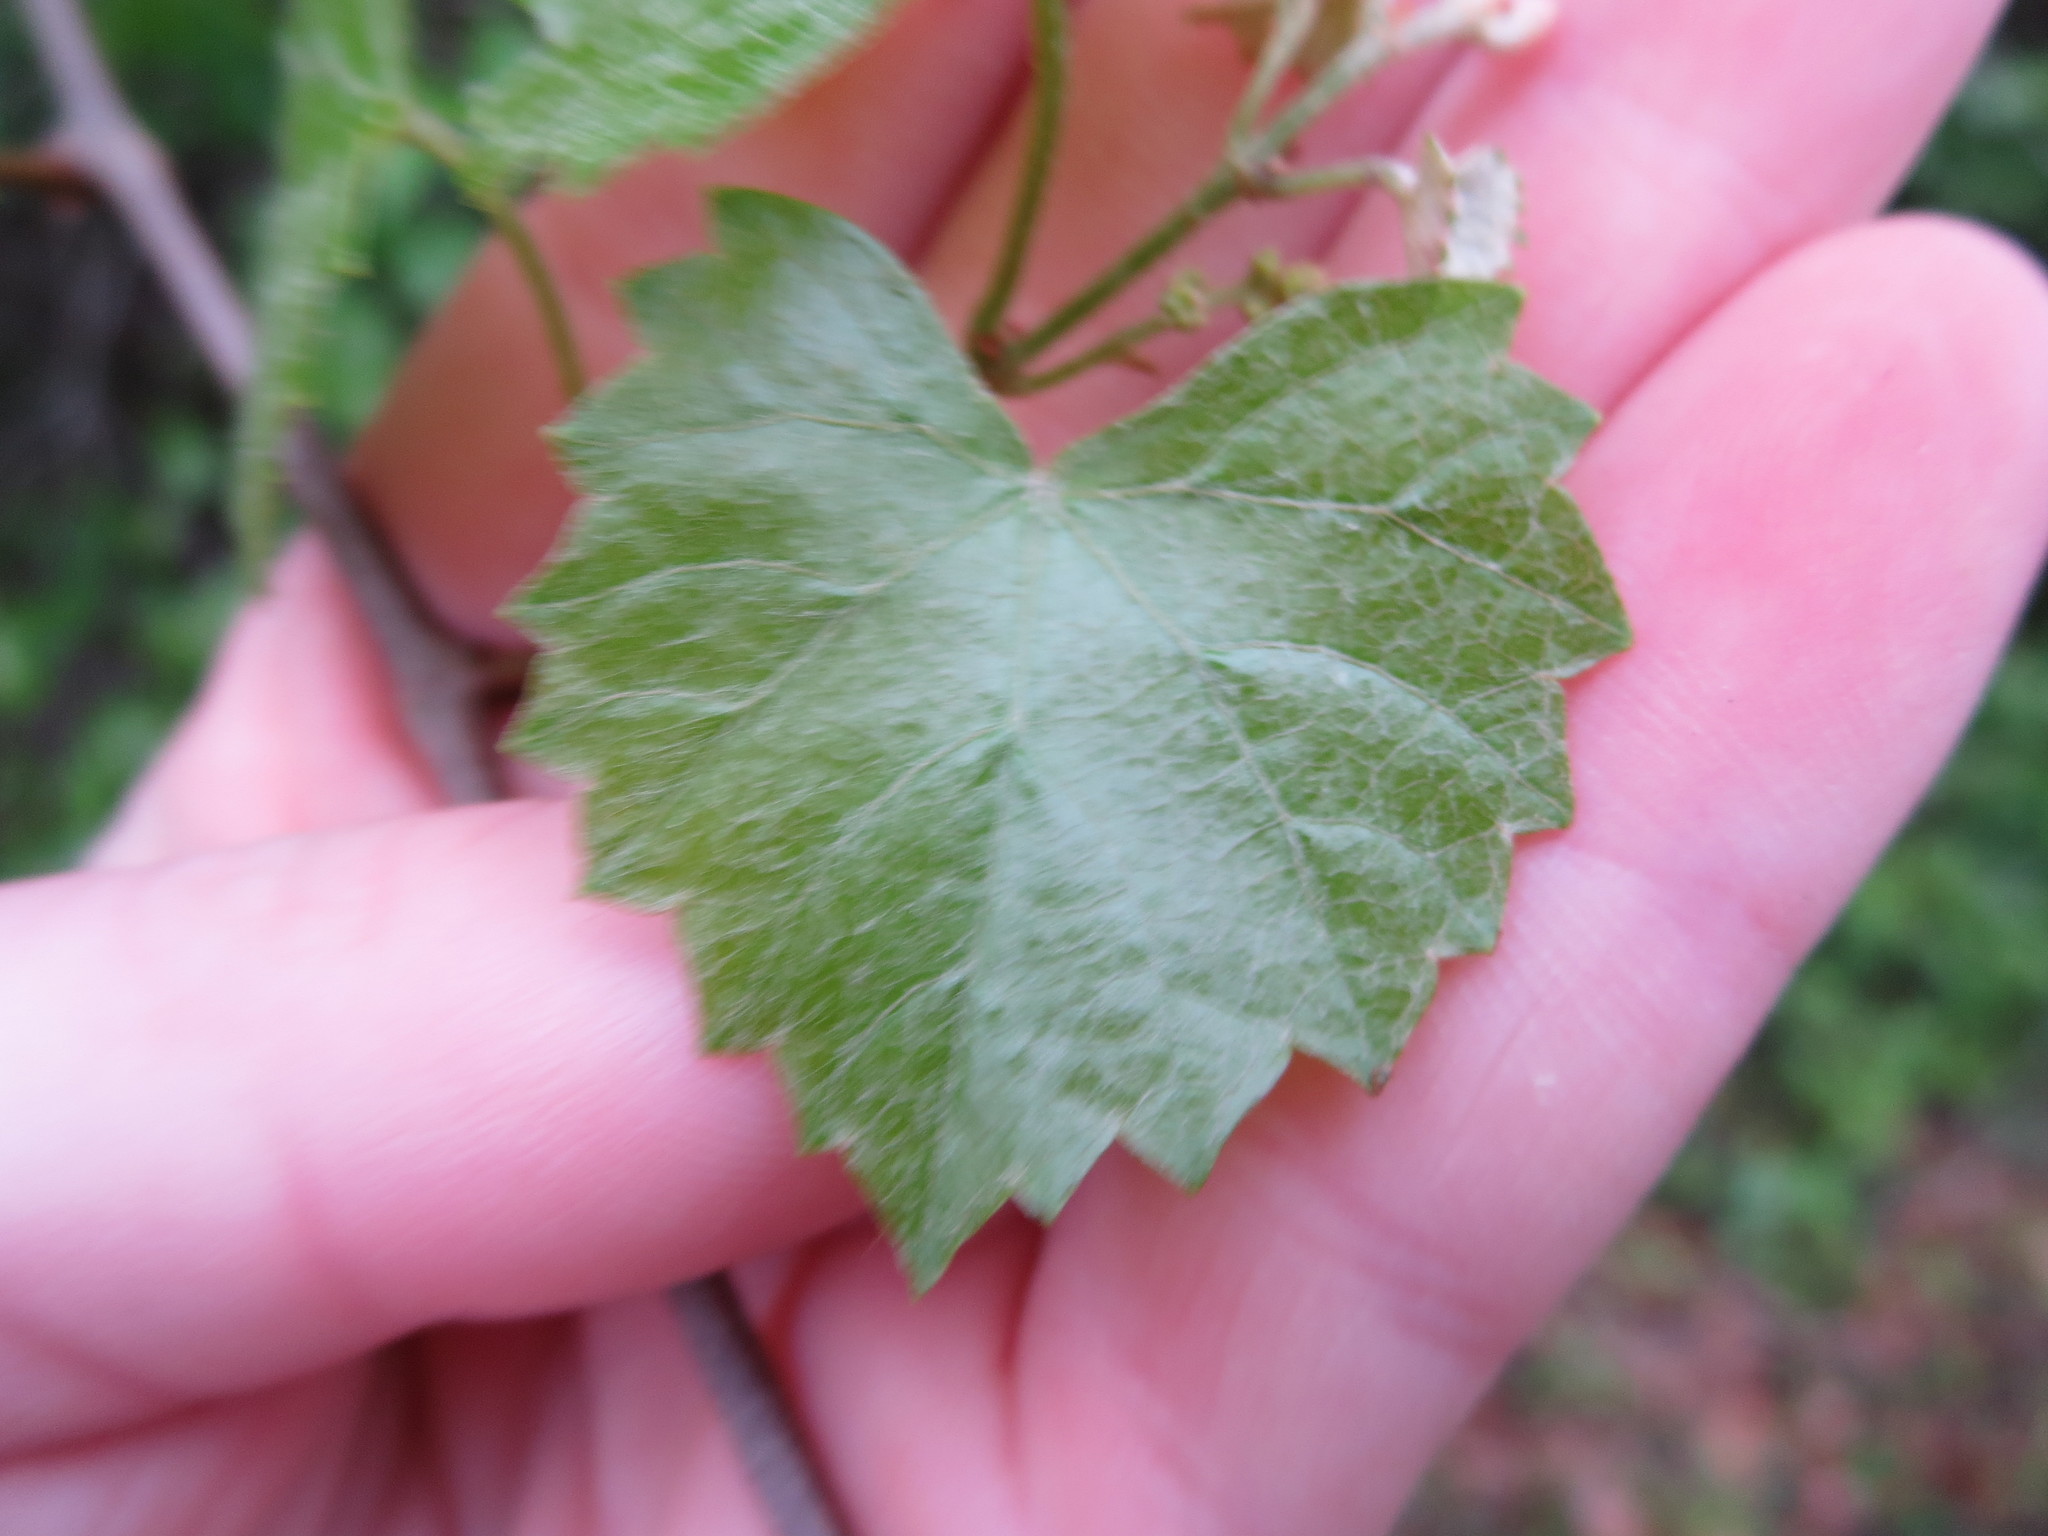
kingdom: Plantae
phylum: Tracheophyta
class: Magnoliopsida
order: Vitales
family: Vitaceae
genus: Vitis
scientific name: Vitis rotundifolia
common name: Muscadine grape
